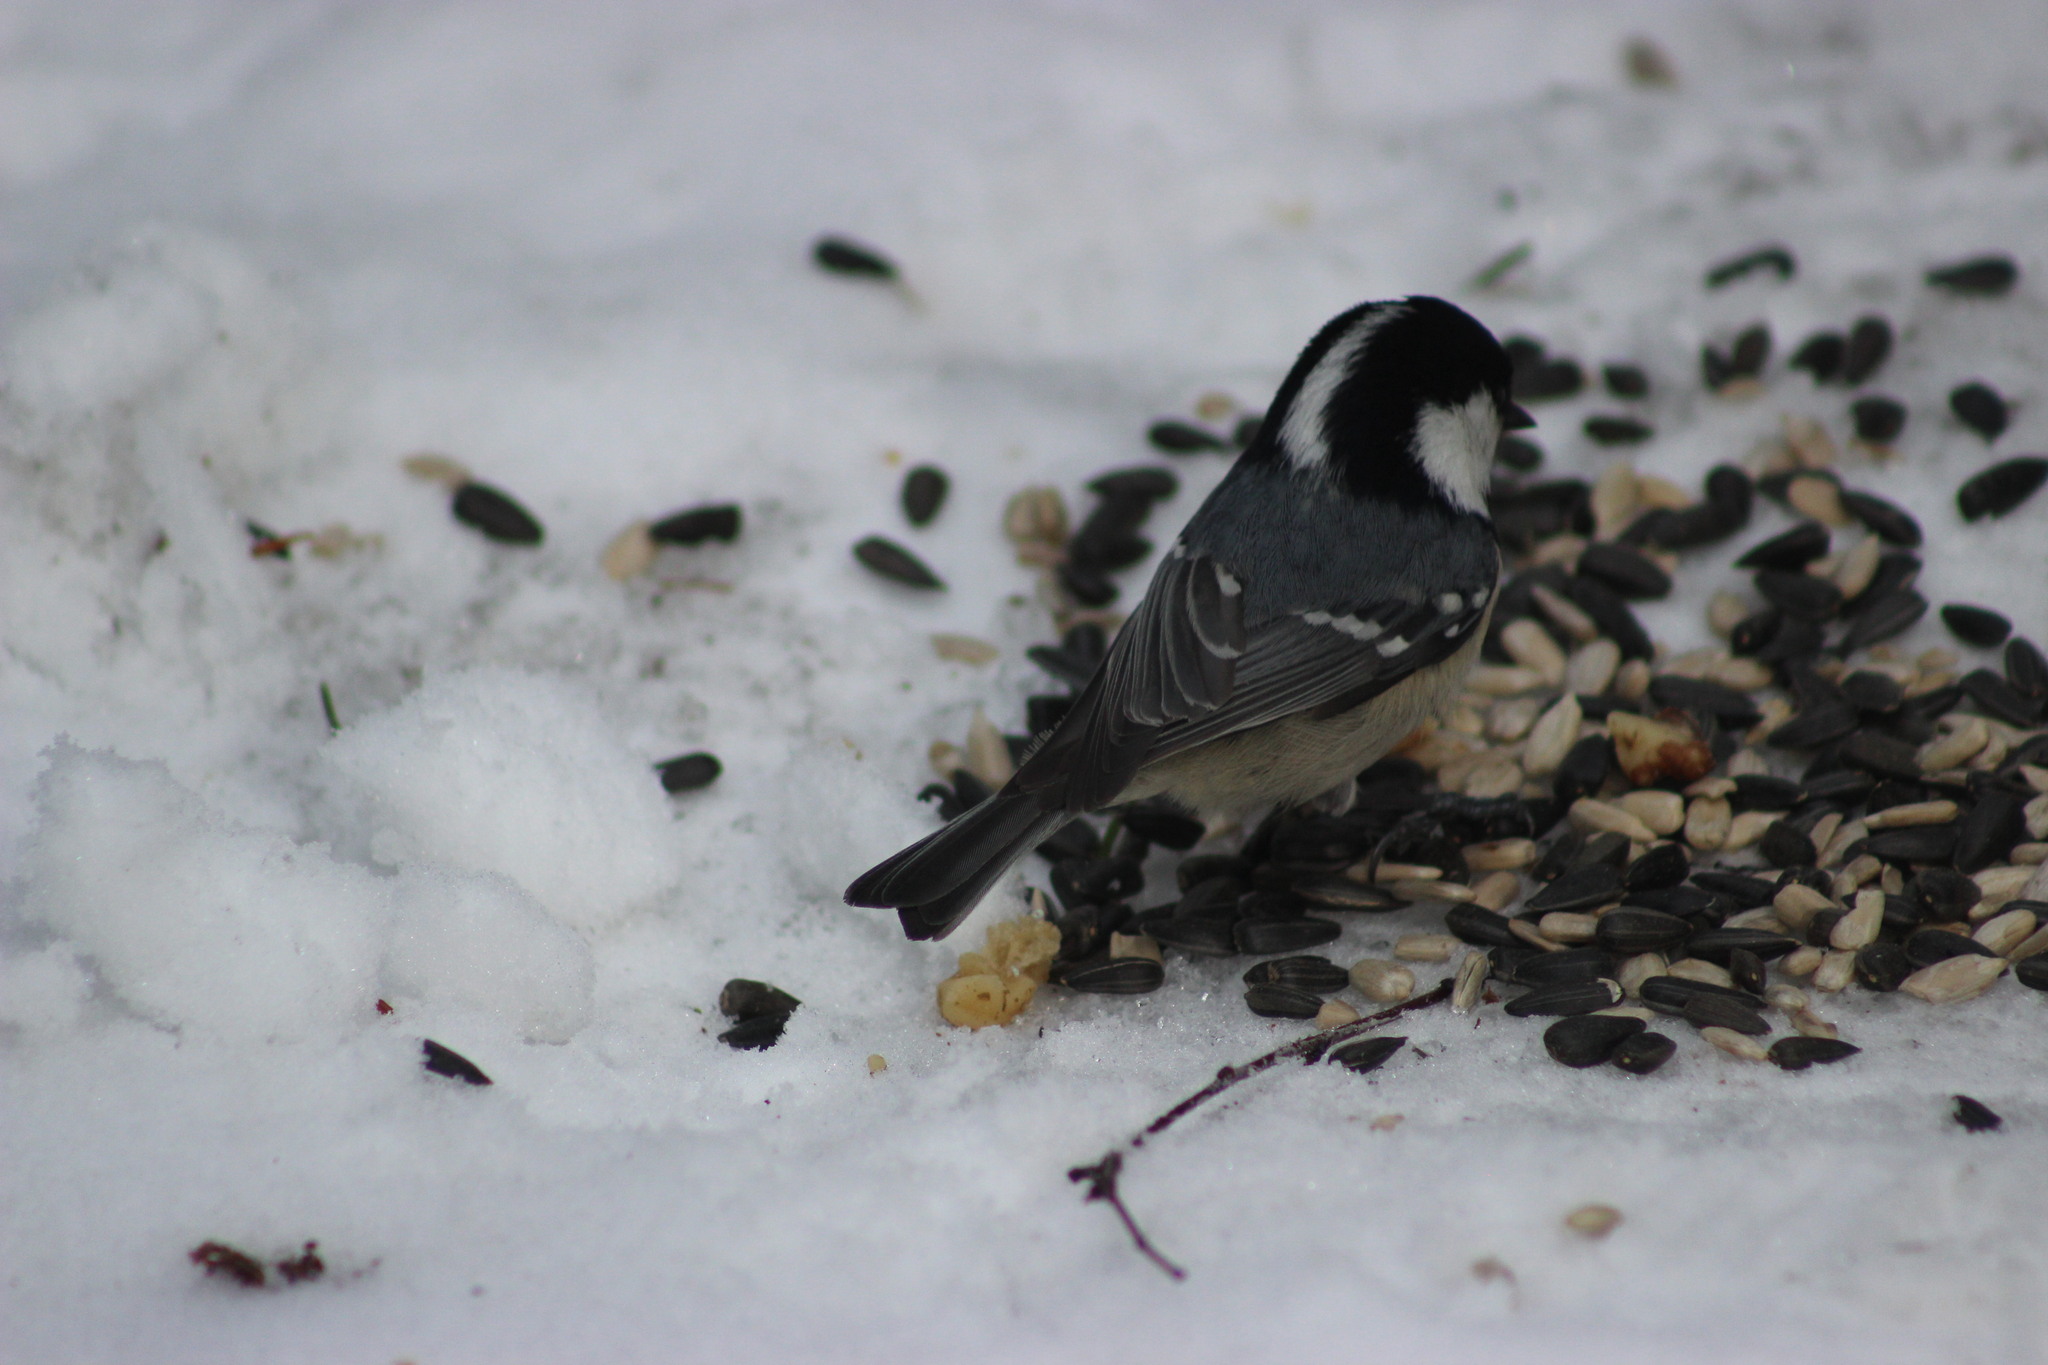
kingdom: Animalia
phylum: Chordata
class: Aves
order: Passeriformes
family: Paridae
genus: Periparus
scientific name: Periparus ater
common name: Coal tit
